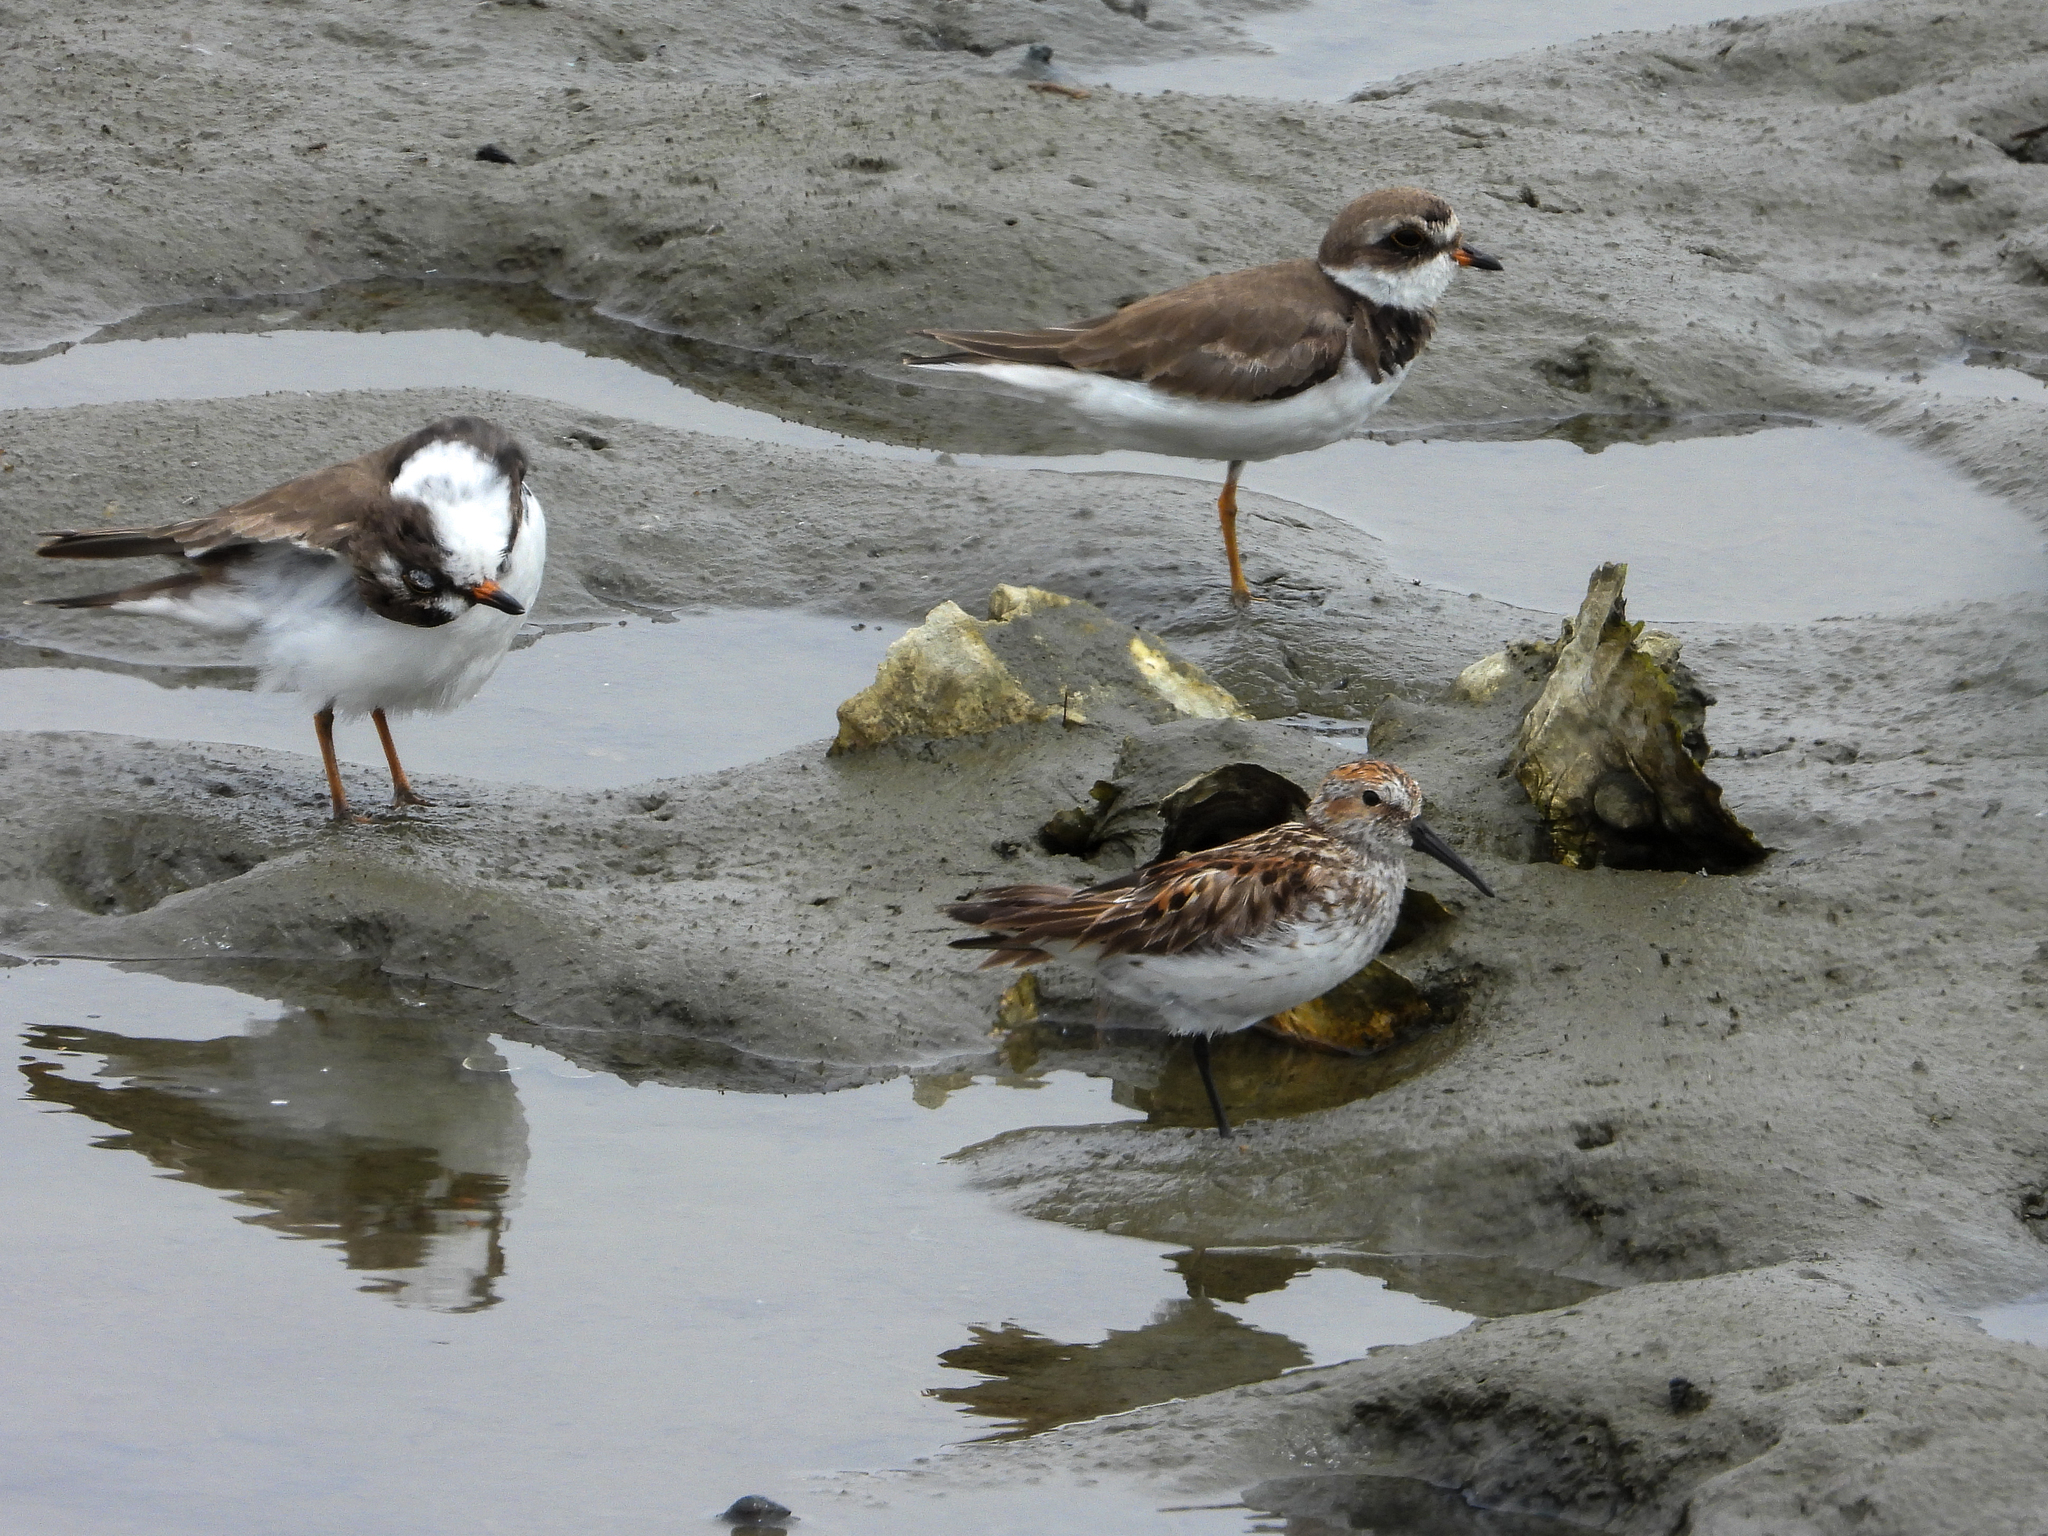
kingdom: Animalia
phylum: Chordata
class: Aves
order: Charadriiformes
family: Scolopacidae
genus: Calidris
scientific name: Calidris mauri
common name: Western sandpiper
